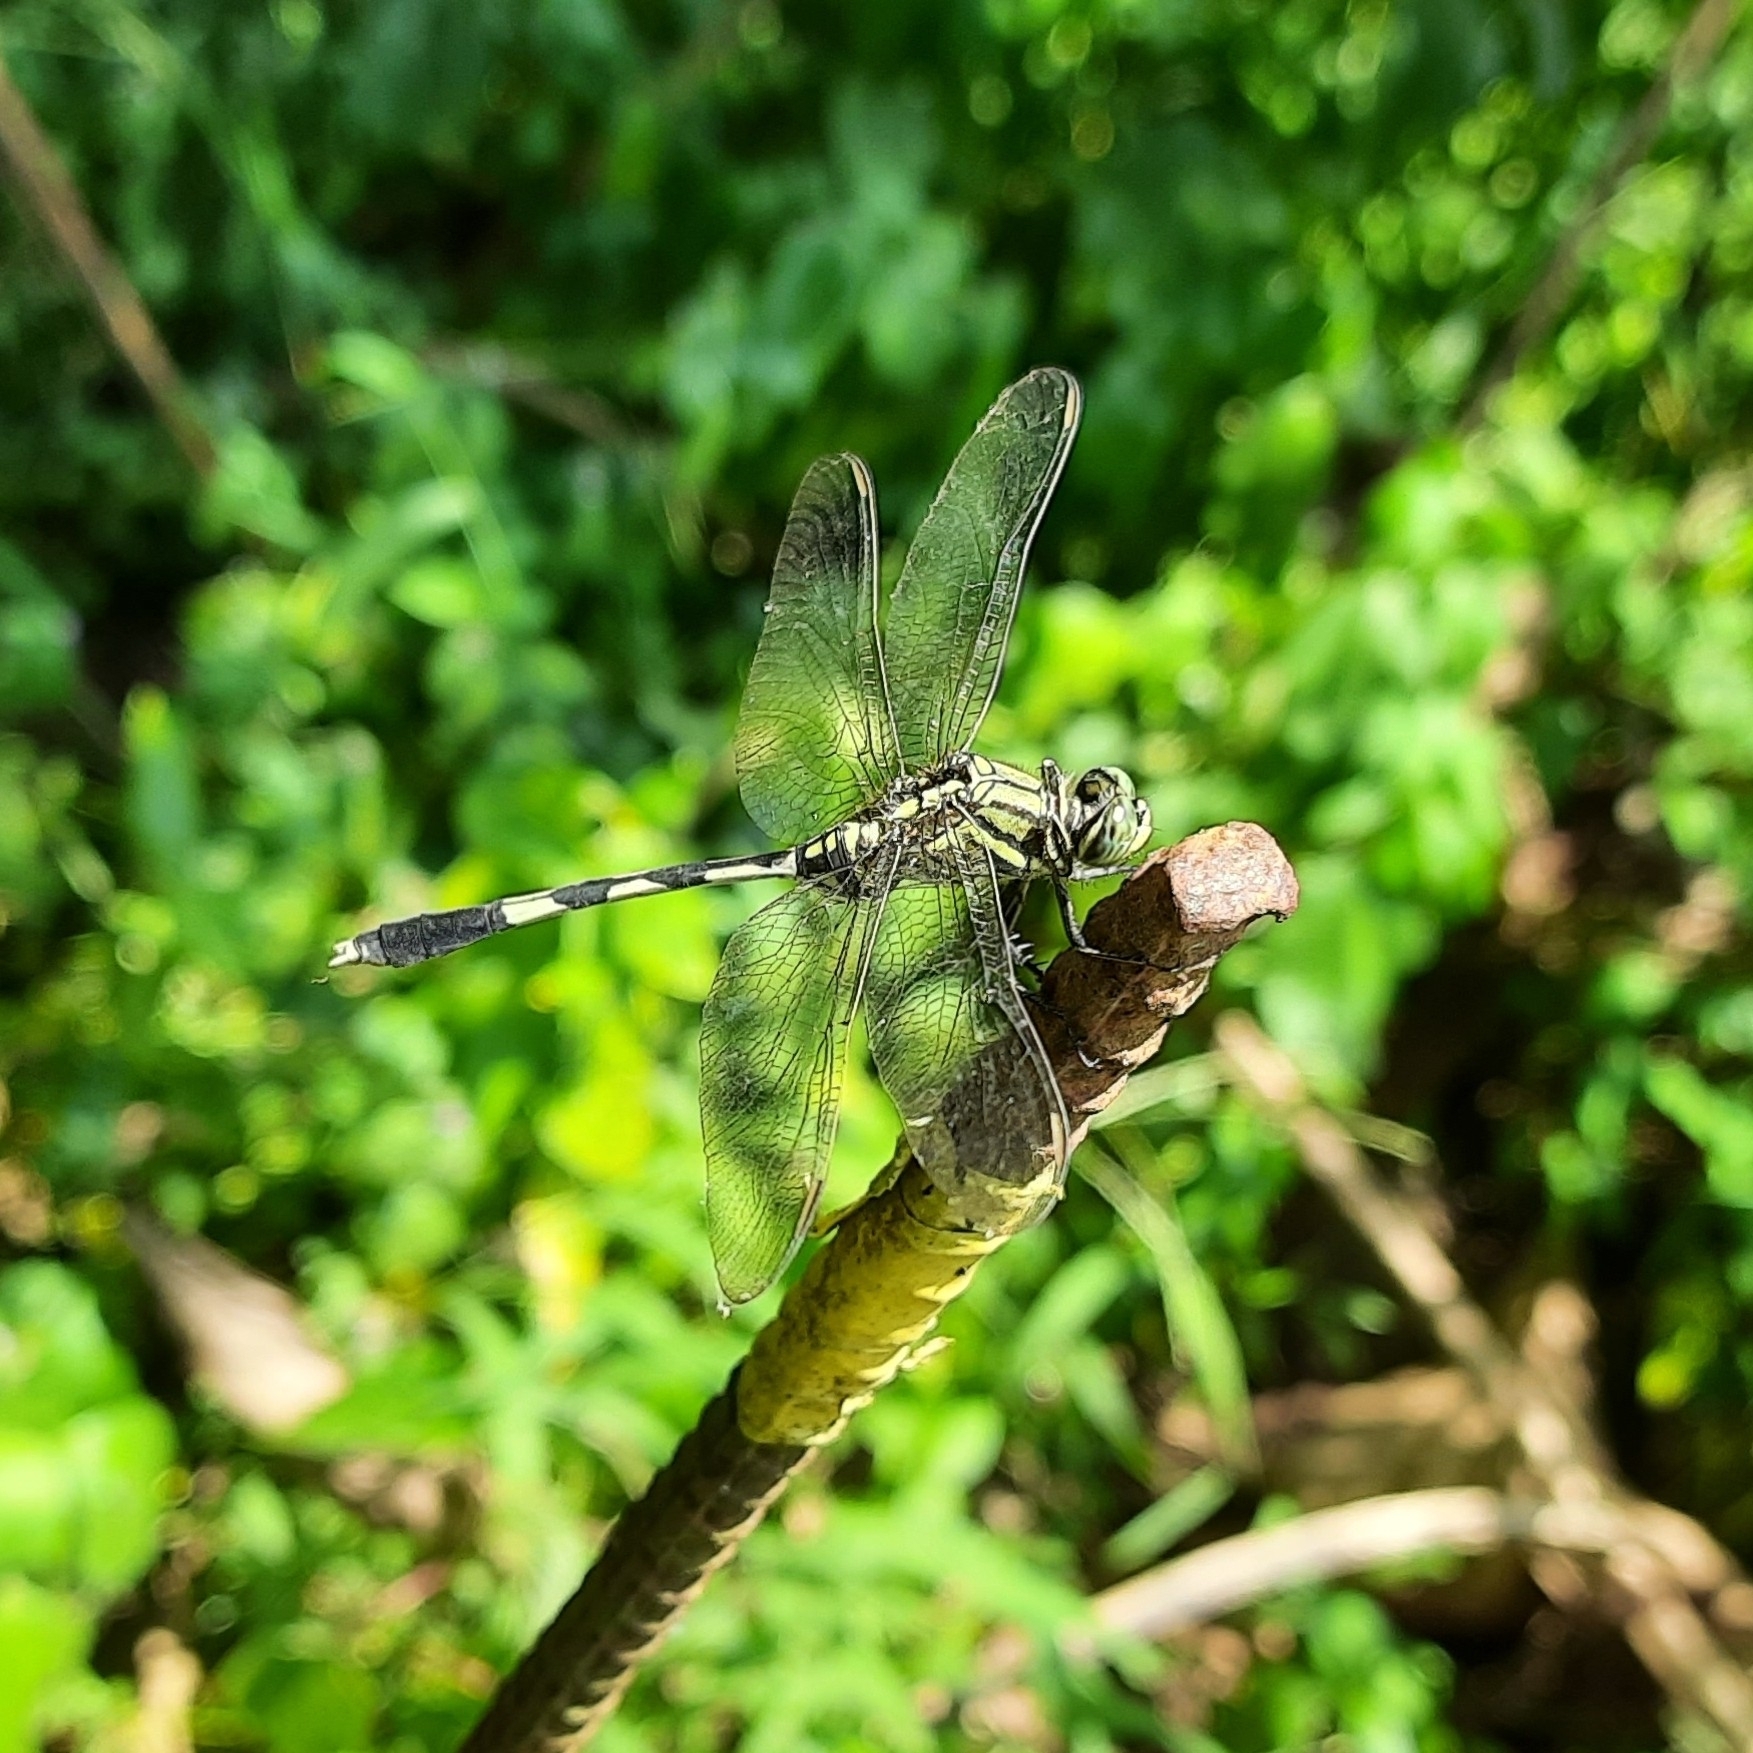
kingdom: Animalia
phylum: Arthropoda
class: Insecta
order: Odonata
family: Libellulidae
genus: Orthetrum
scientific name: Orthetrum sabina
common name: Slender skimmer
